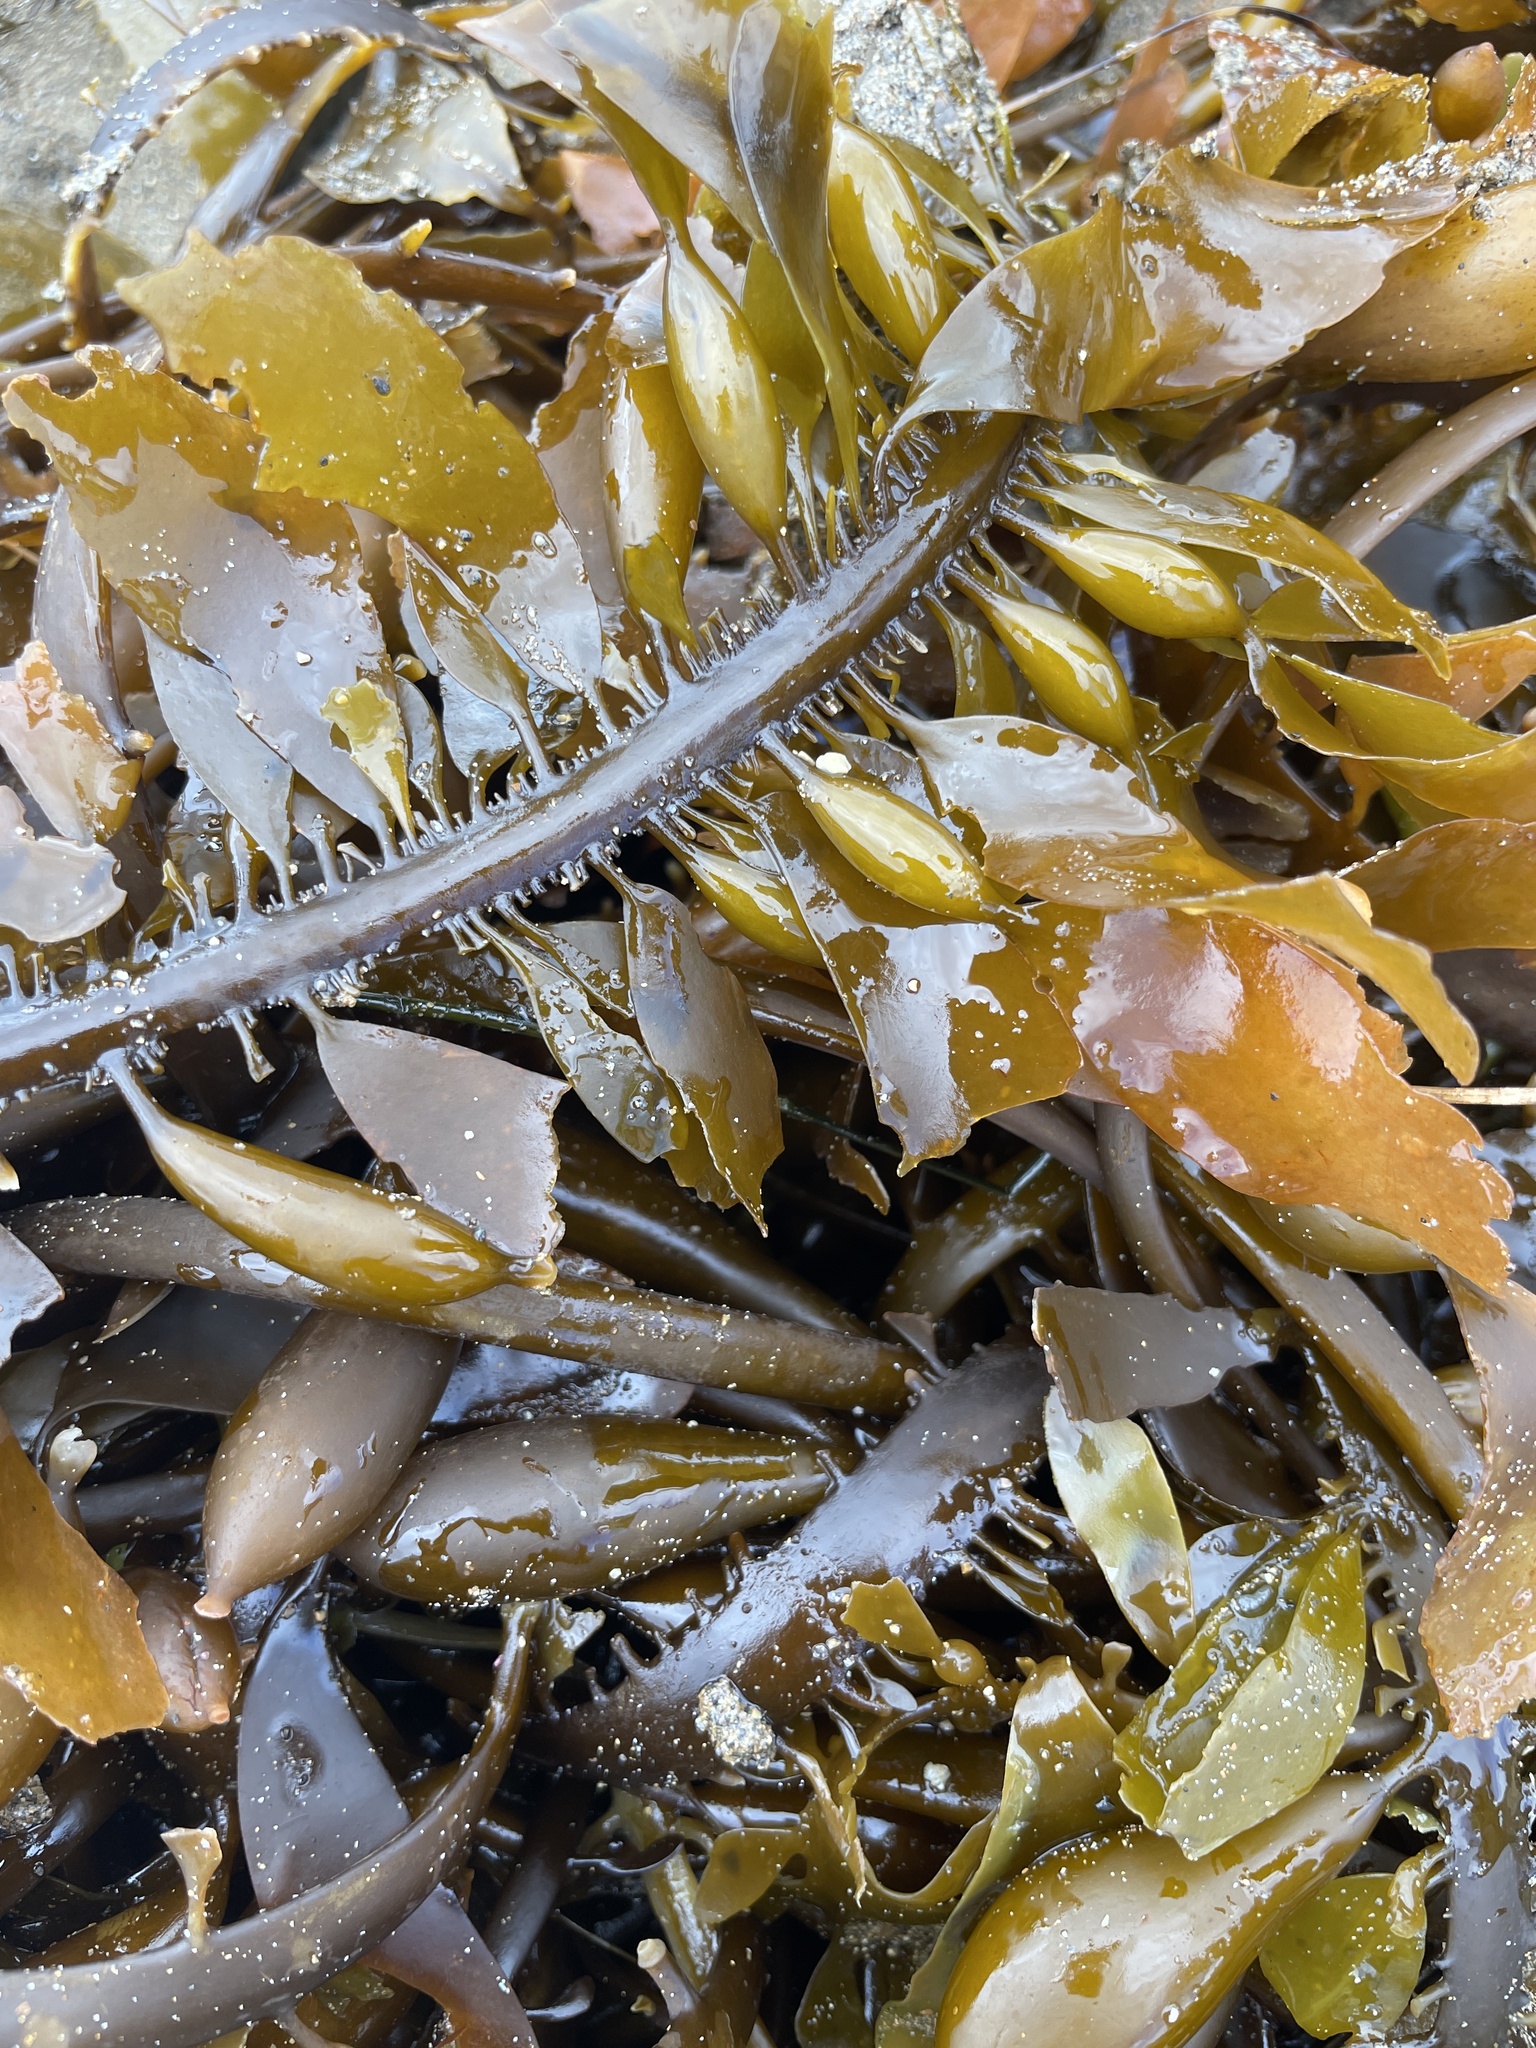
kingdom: Chromista
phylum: Ochrophyta
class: Phaeophyceae
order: Laminariales
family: Lessoniaceae
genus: Egregia
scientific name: Egregia menziesii
